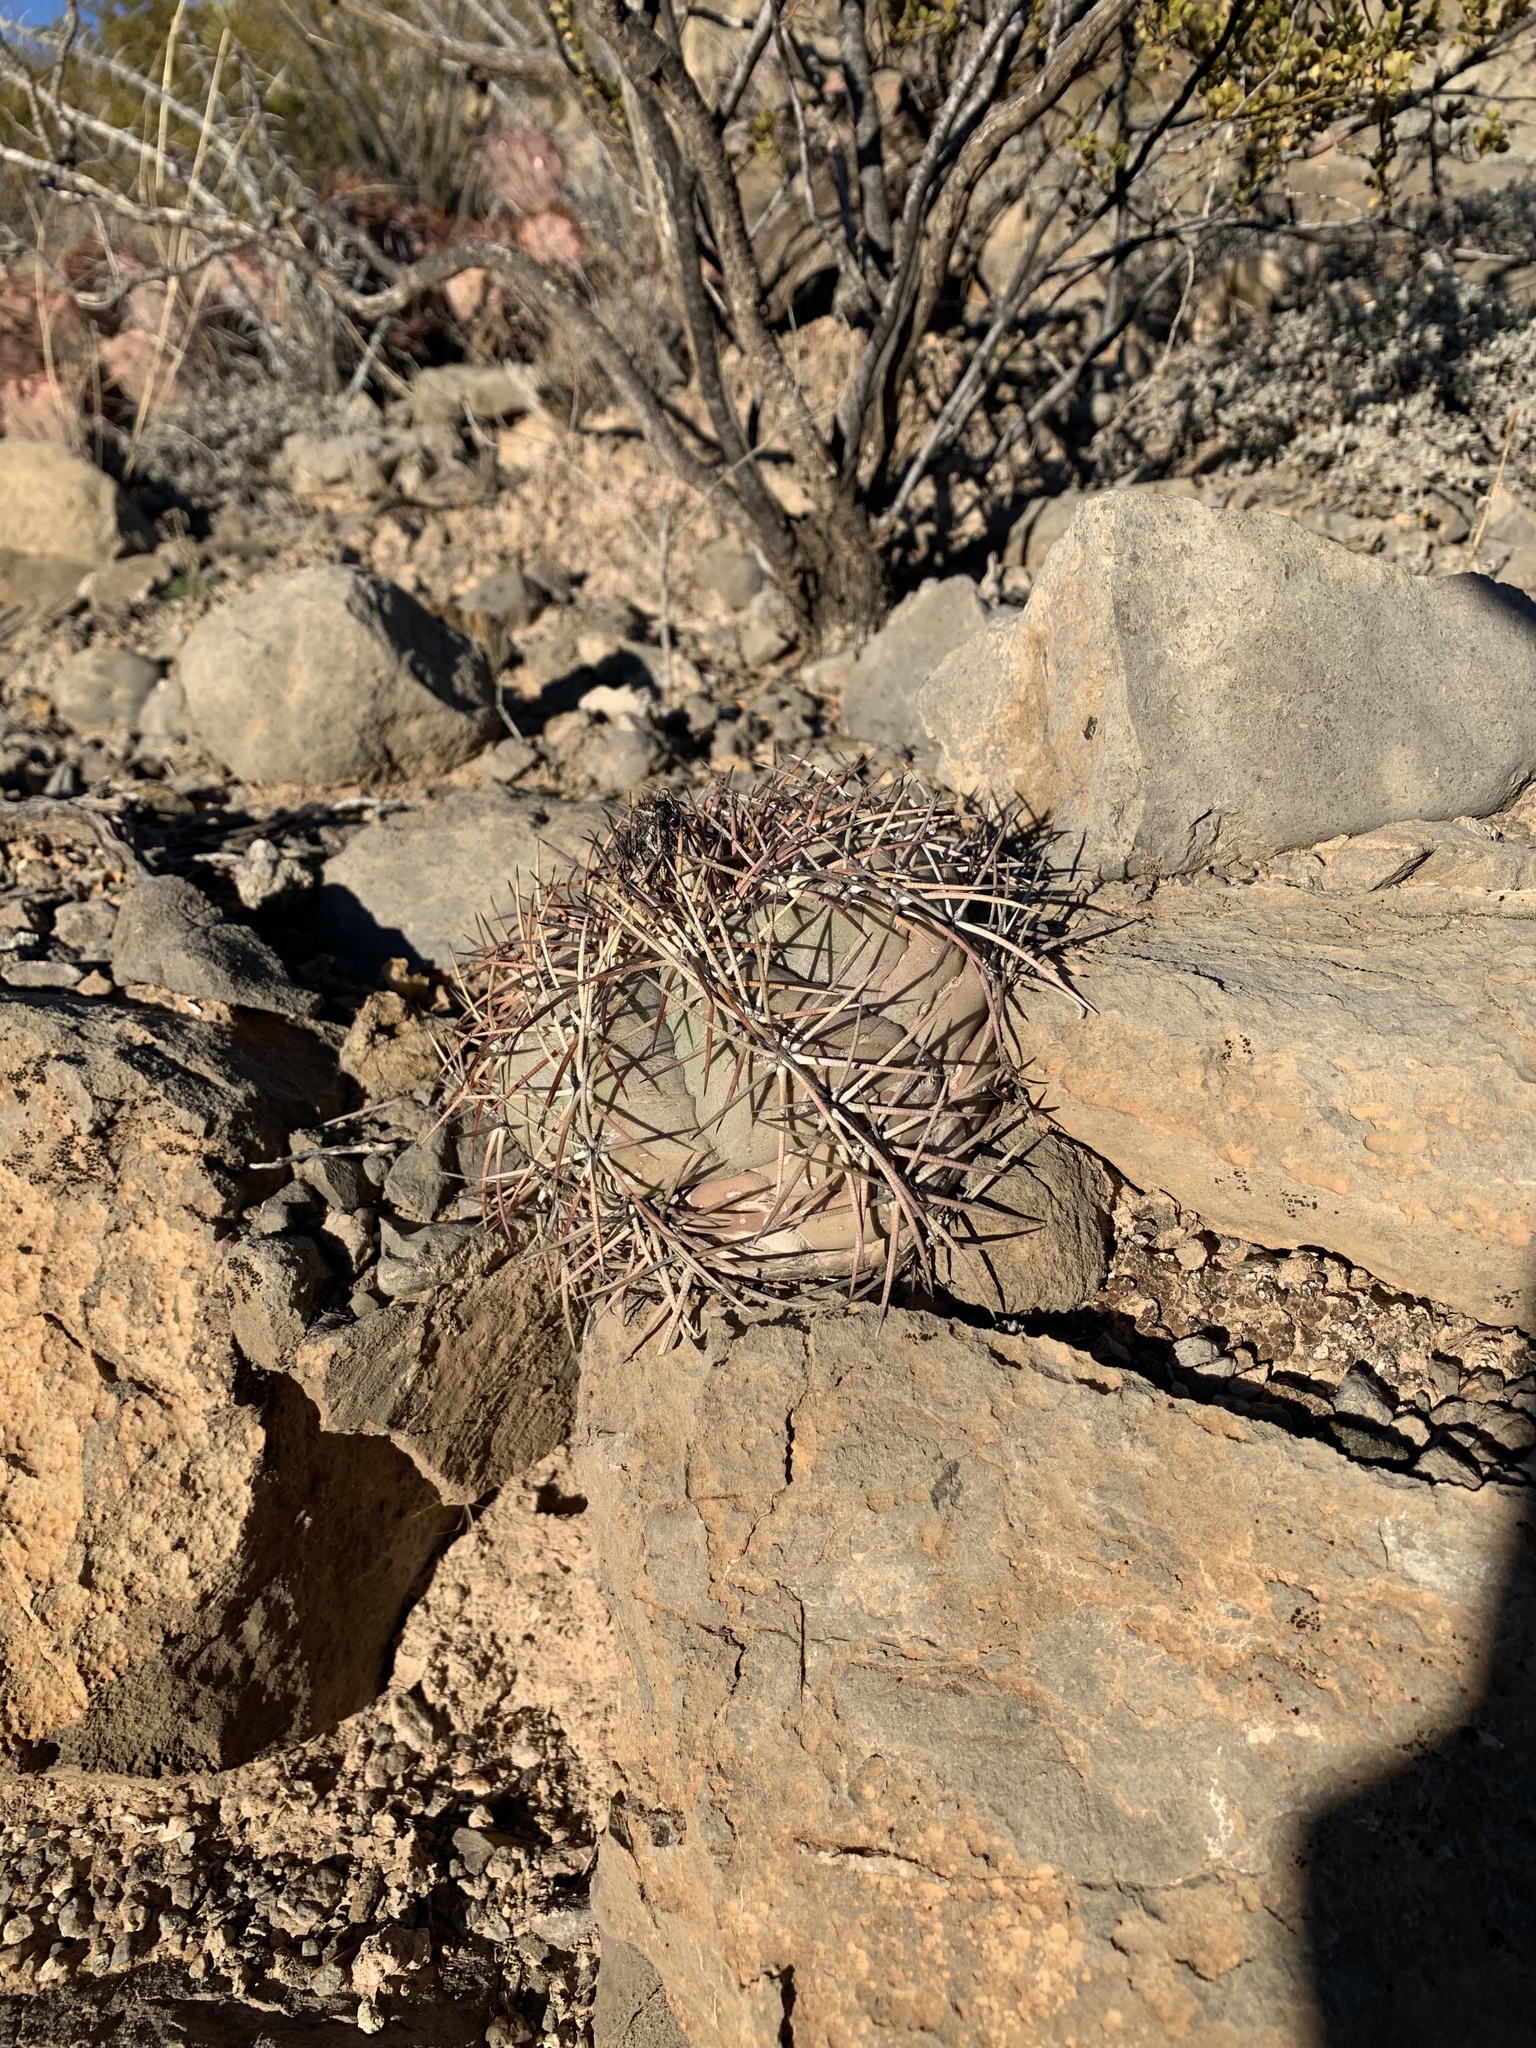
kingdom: Plantae
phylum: Tracheophyta
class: Magnoliopsida
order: Caryophyllales
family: Cactaceae
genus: Echinocactus
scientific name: Echinocactus horizonthalonius
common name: Devilshead
